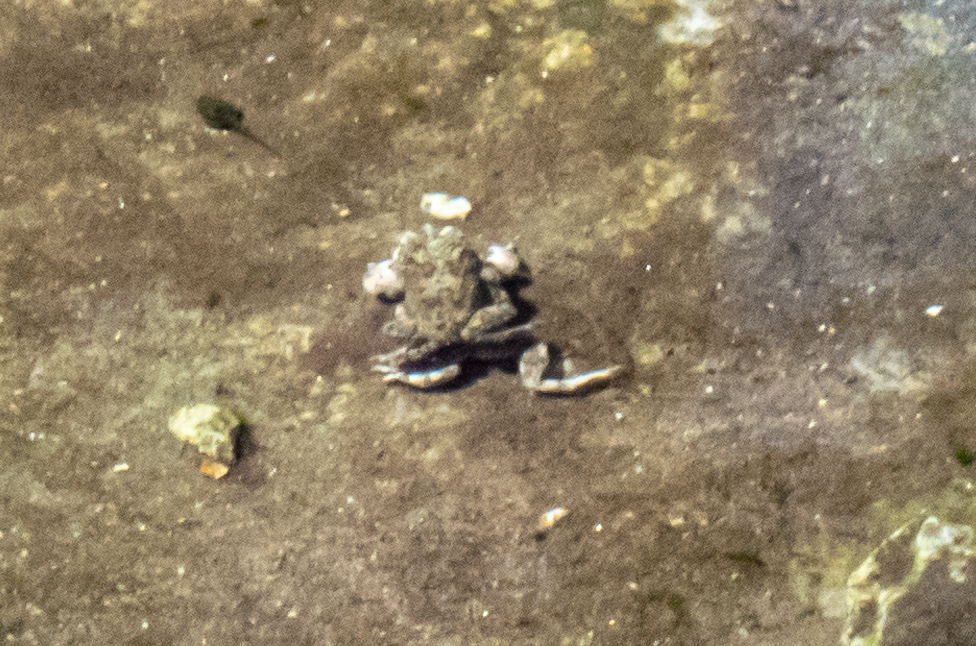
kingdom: Animalia
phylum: Chordata
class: Amphibia
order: Anura
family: Scaphiopodidae
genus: Spea
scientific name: Spea hammondii
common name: Western spadefoot toad
